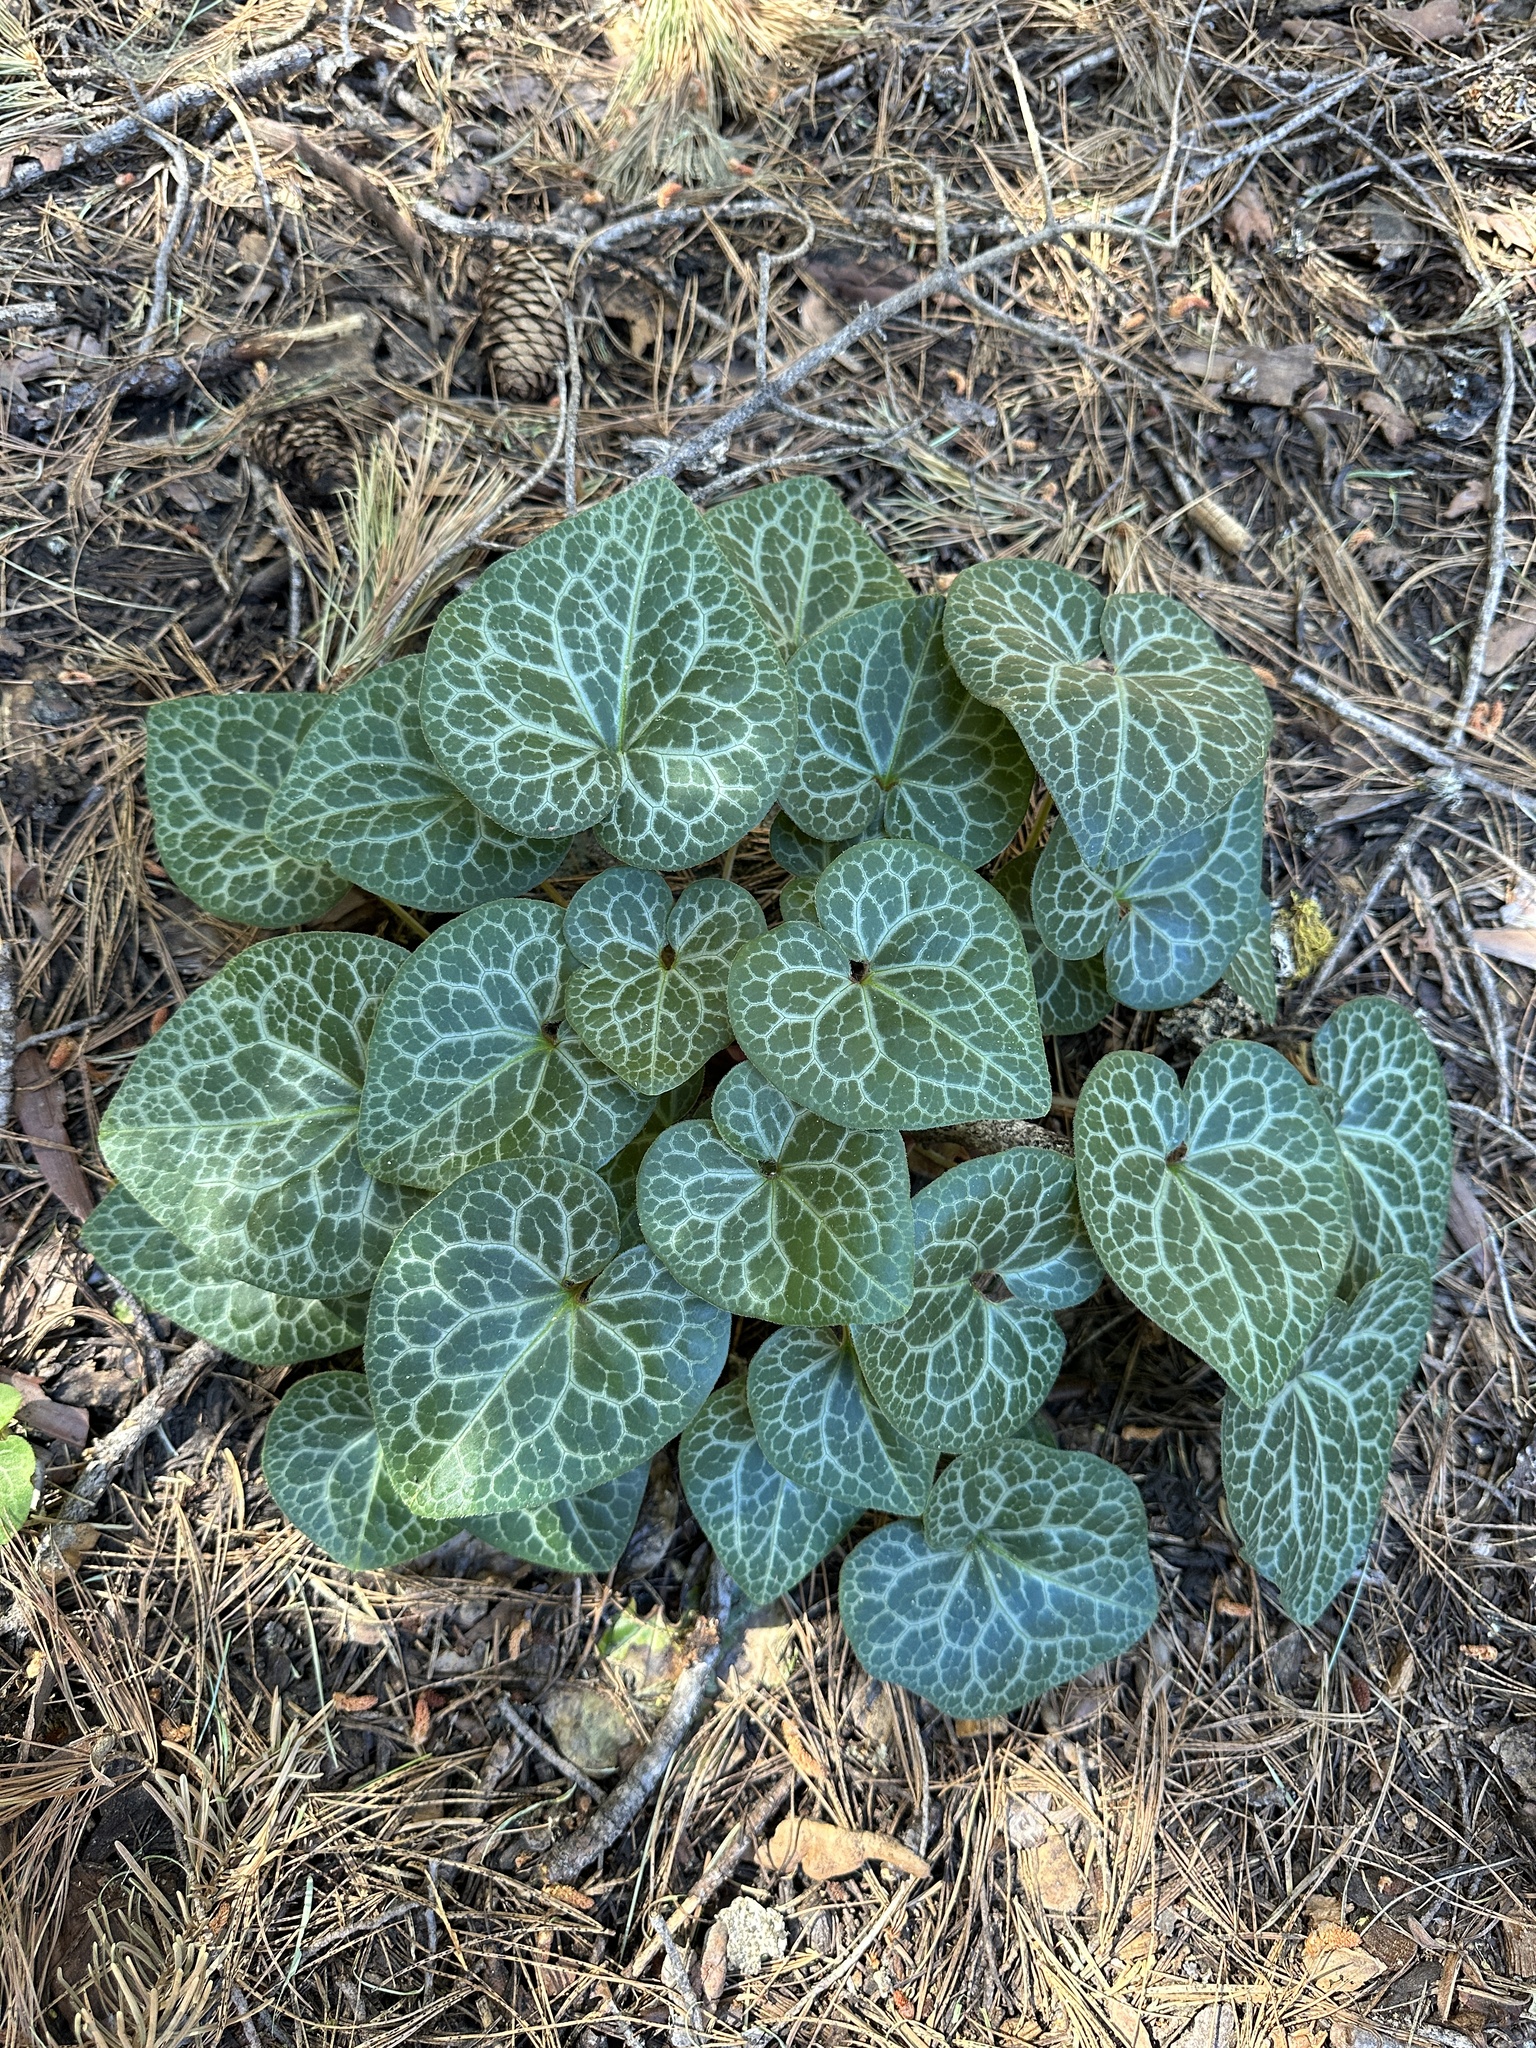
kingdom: Plantae
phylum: Tracheophyta
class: Magnoliopsida
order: Piperales
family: Aristolochiaceae
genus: Asarum
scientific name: Asarum hartwegii
